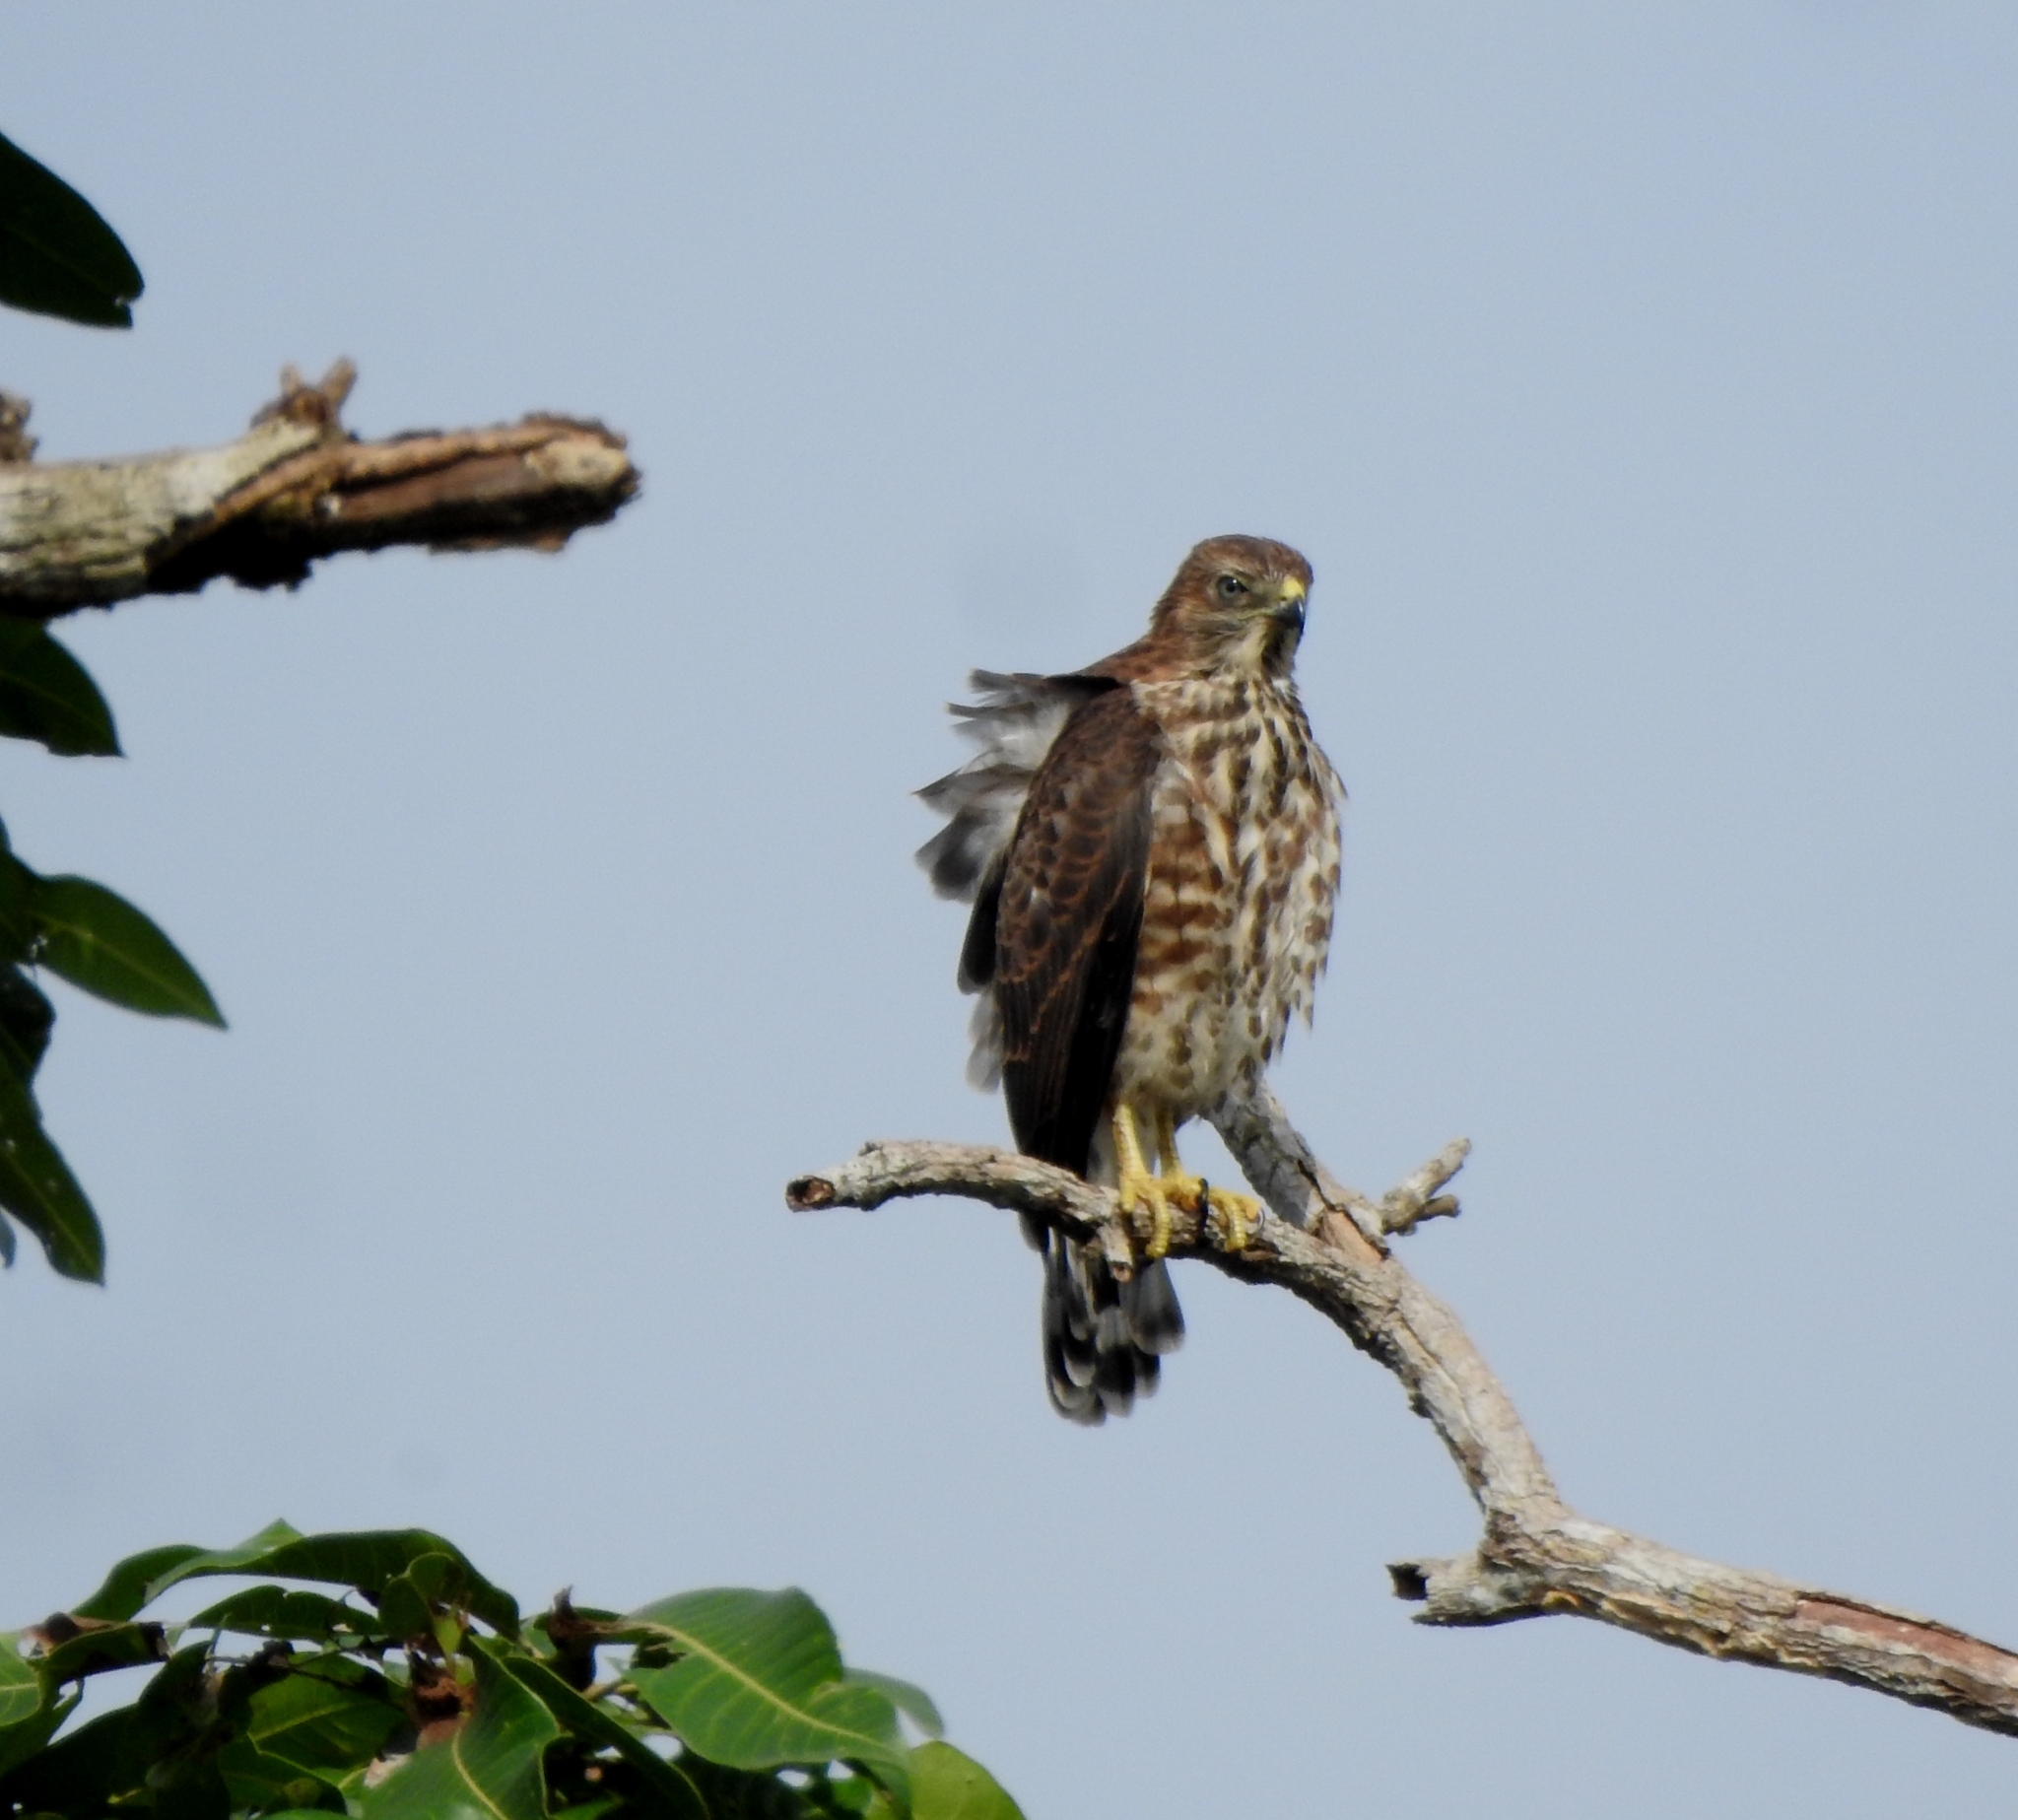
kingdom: Animalia
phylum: Chordata
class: Aves
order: Accipitriformes
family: Accipitridae
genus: Accipiter
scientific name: Accipiter badius
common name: Shikra
